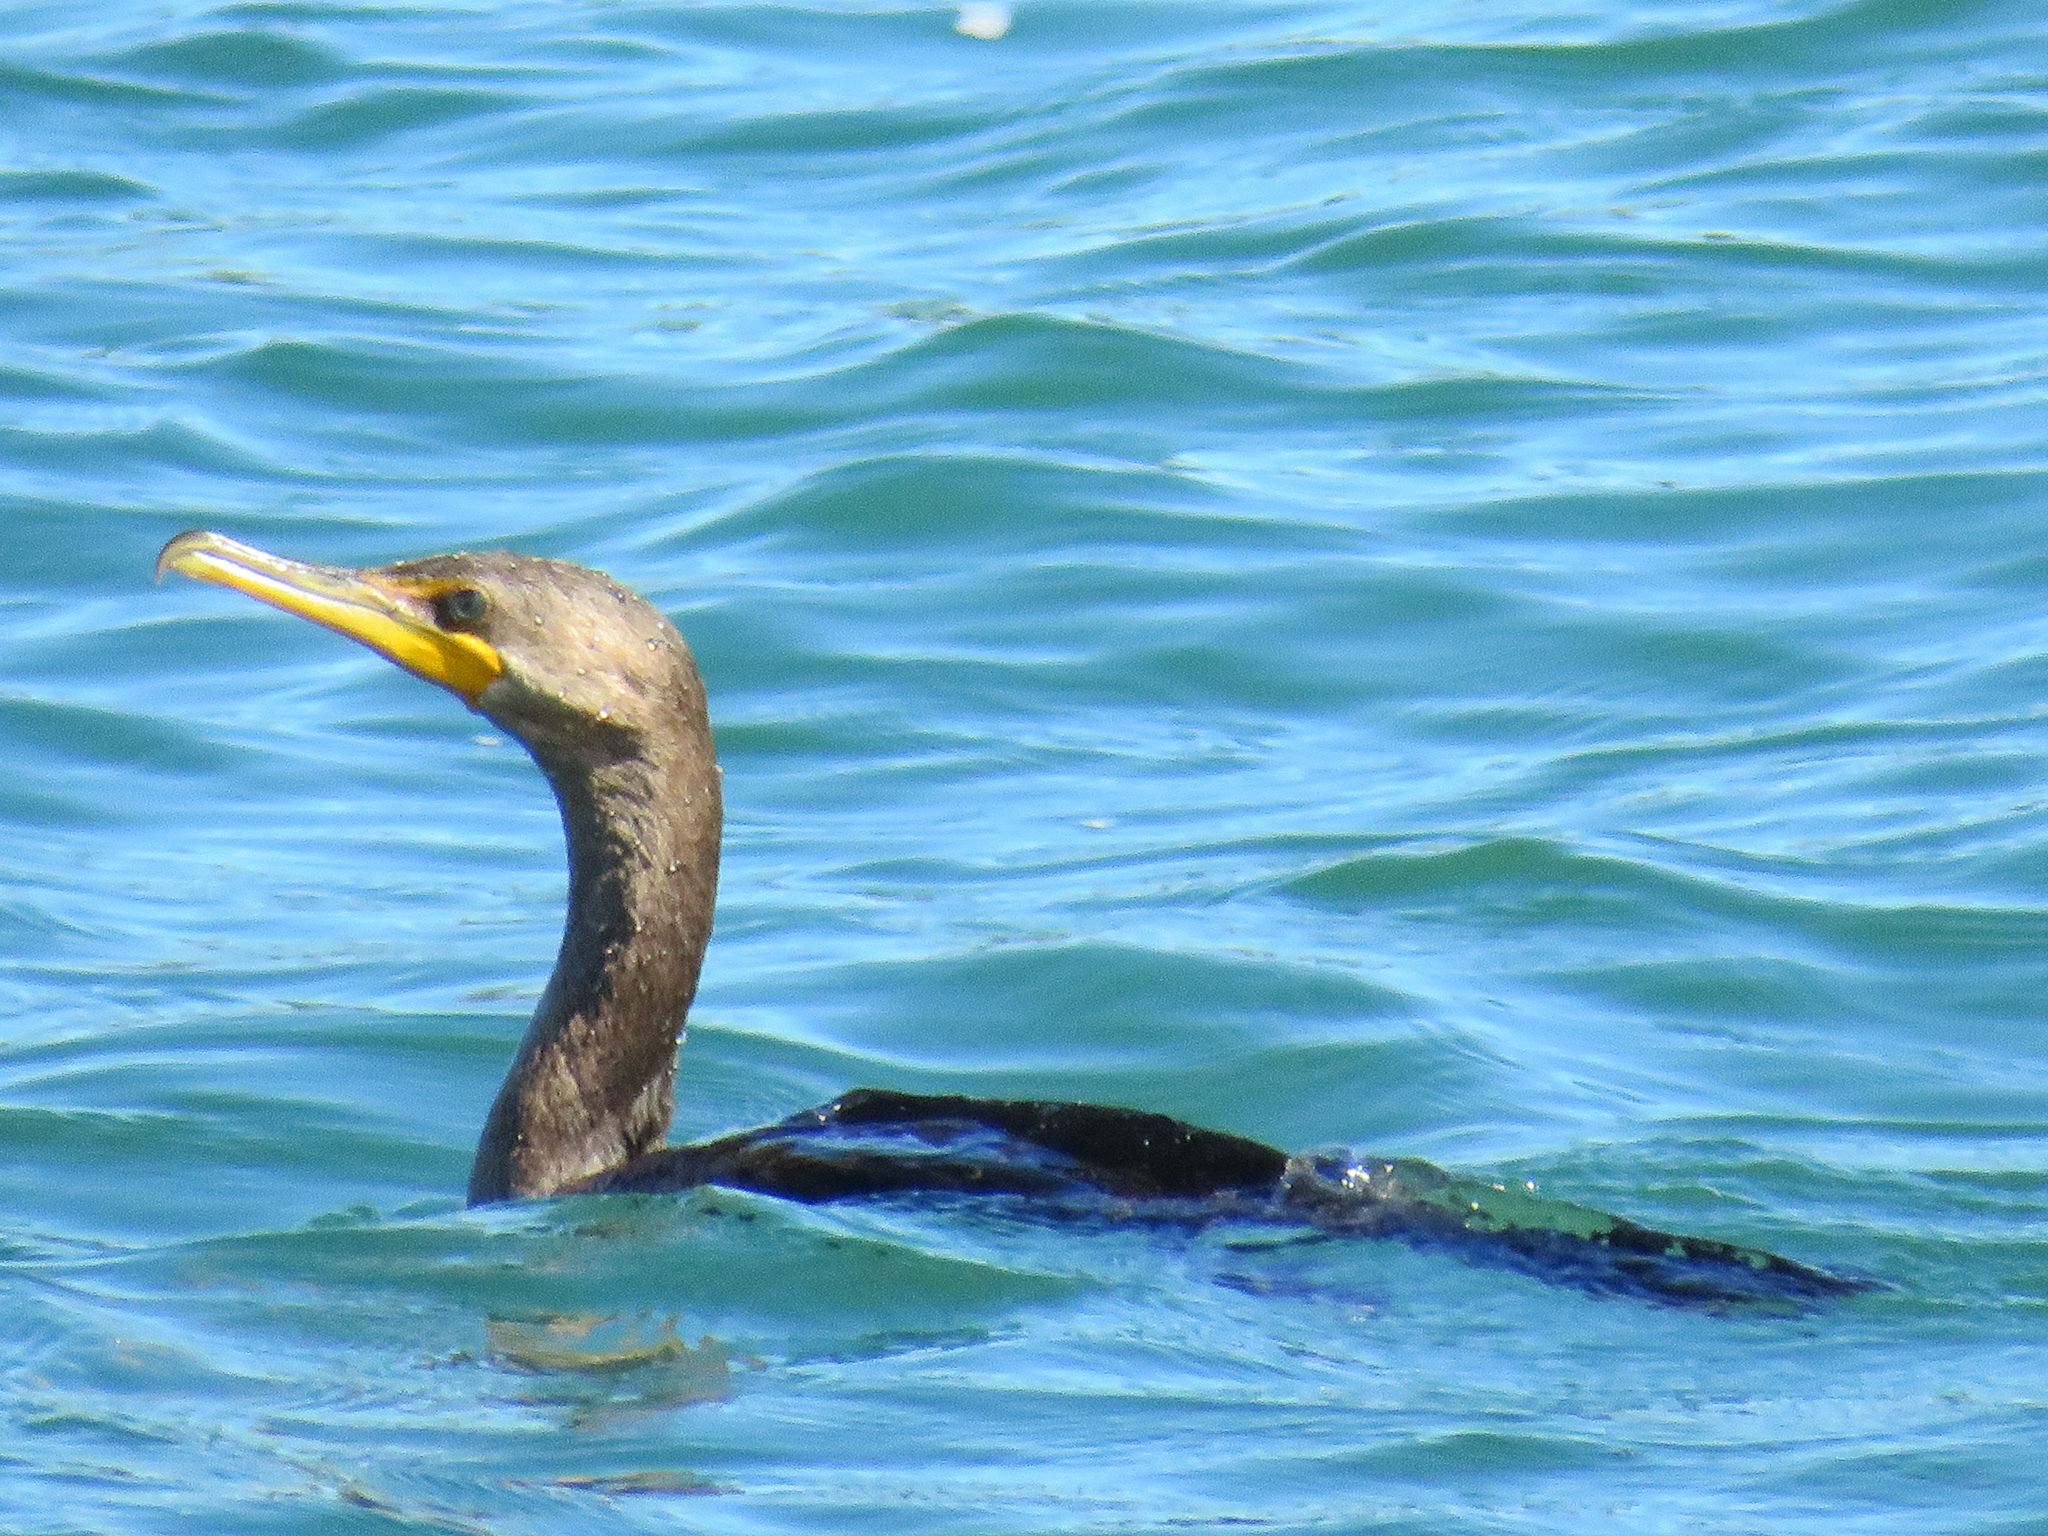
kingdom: Animalia
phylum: Chordata
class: Aves
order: Suliformes
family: Phalacrocoracidae
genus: Phalacrocorax
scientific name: Phalacrocorax auritus
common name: Double-crested cormorant
